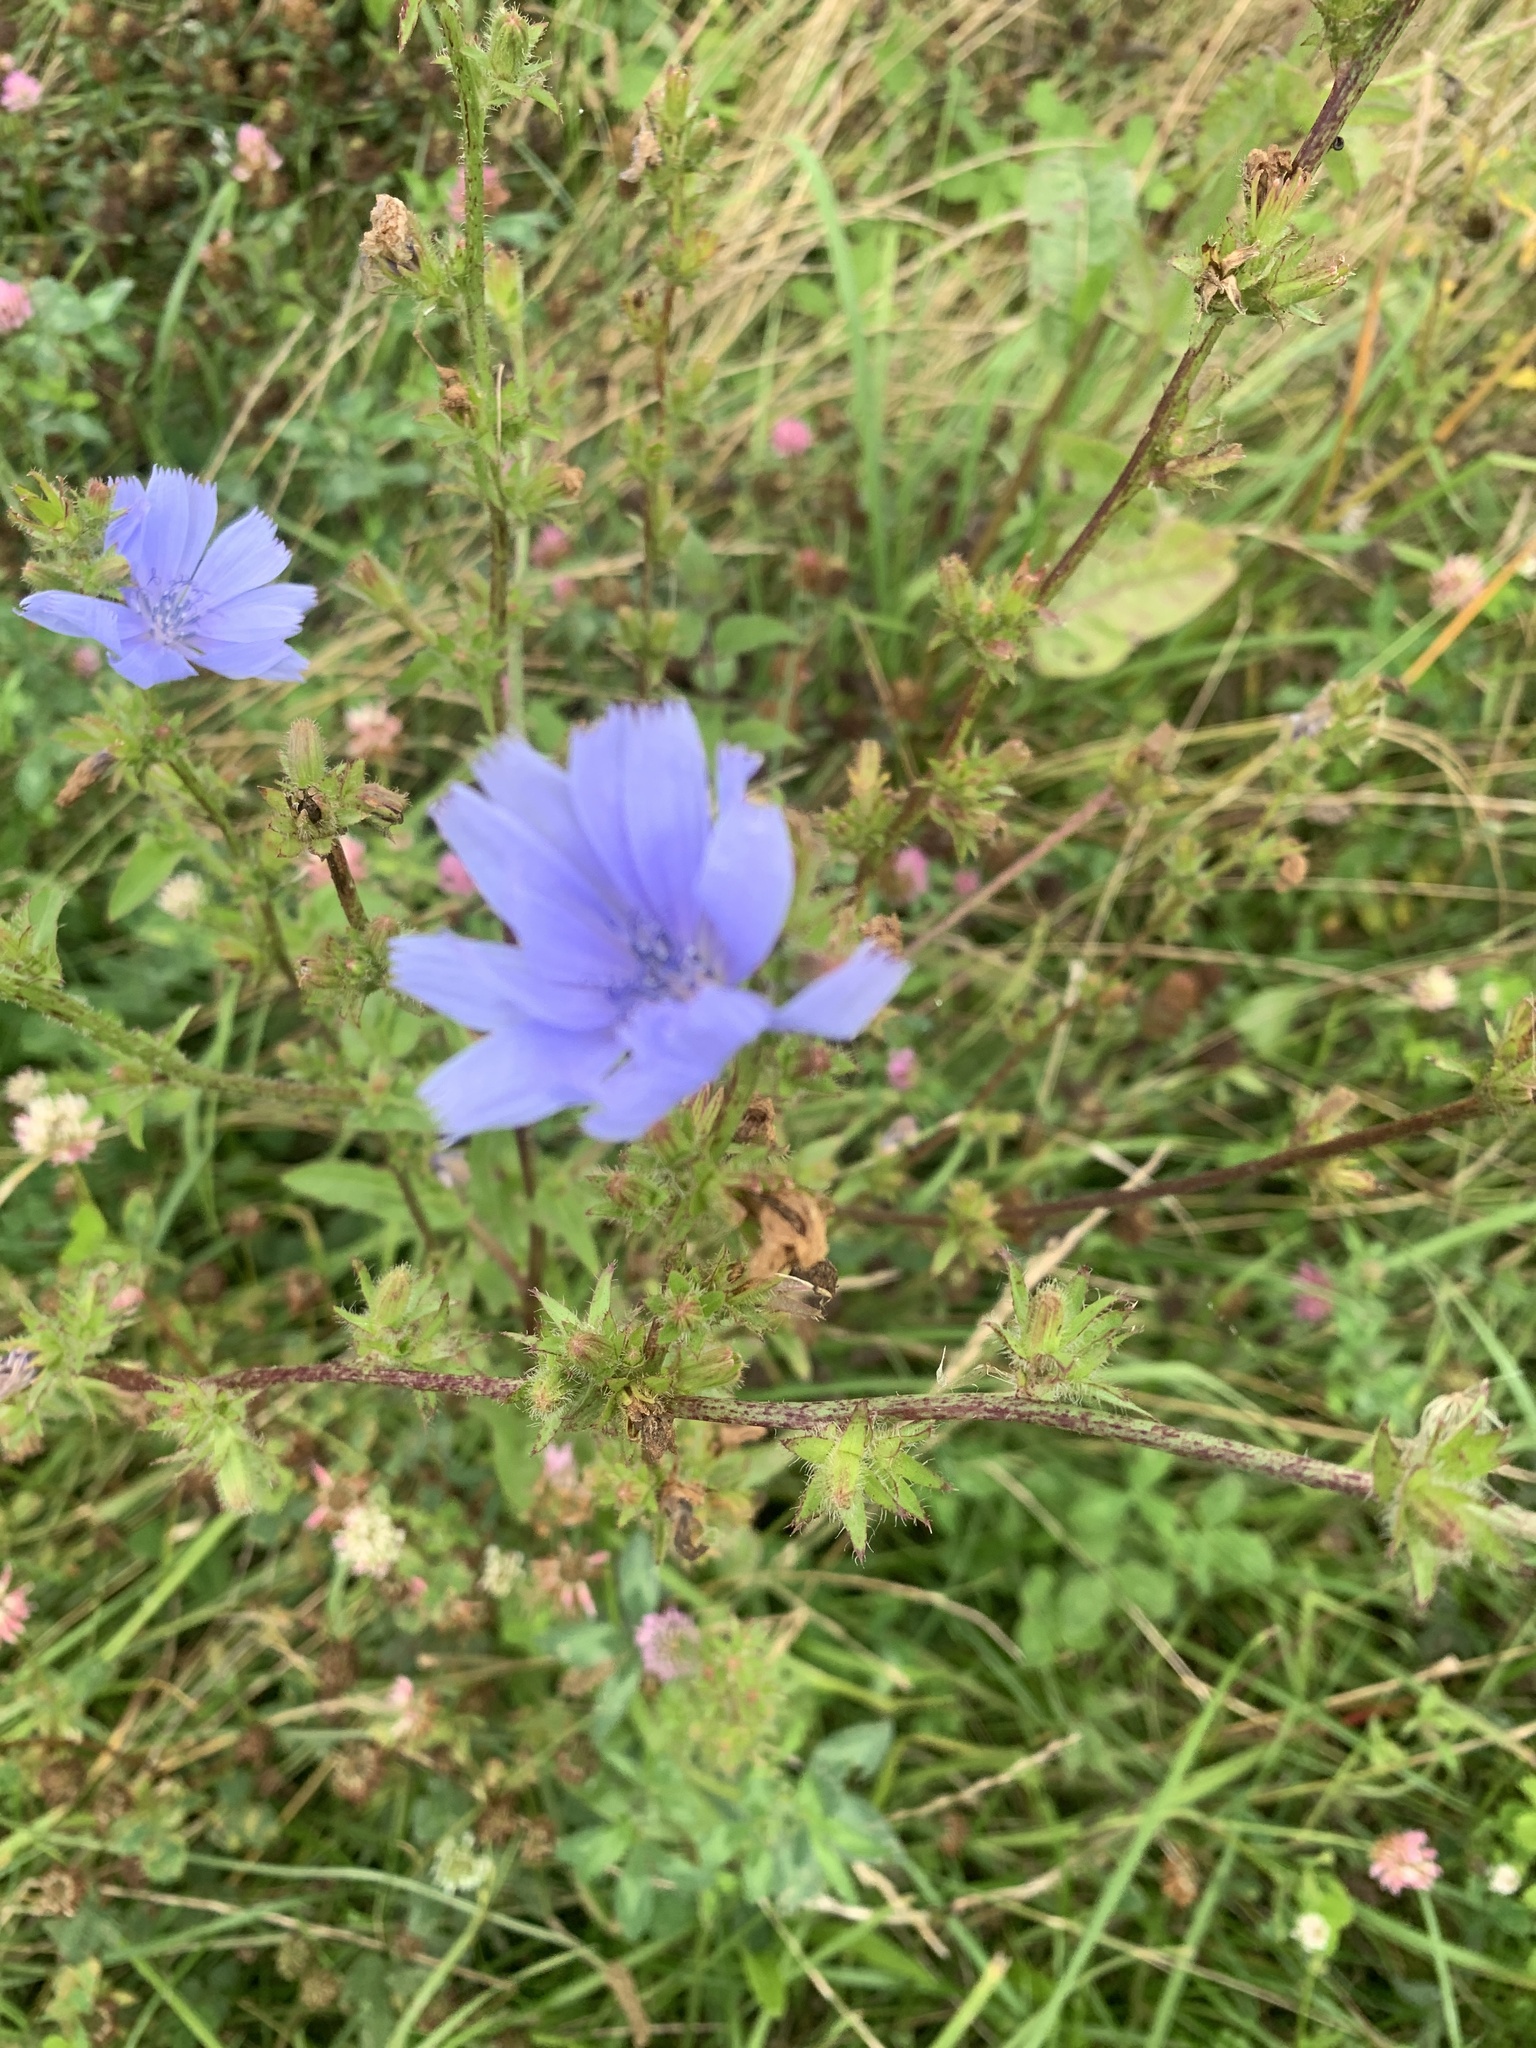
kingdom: Plantae
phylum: Tracheophyta
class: Magnoliopsida
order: Asterales
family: Asteraceae
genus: Cichorium
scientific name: Cichorium intybus
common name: Chicory
